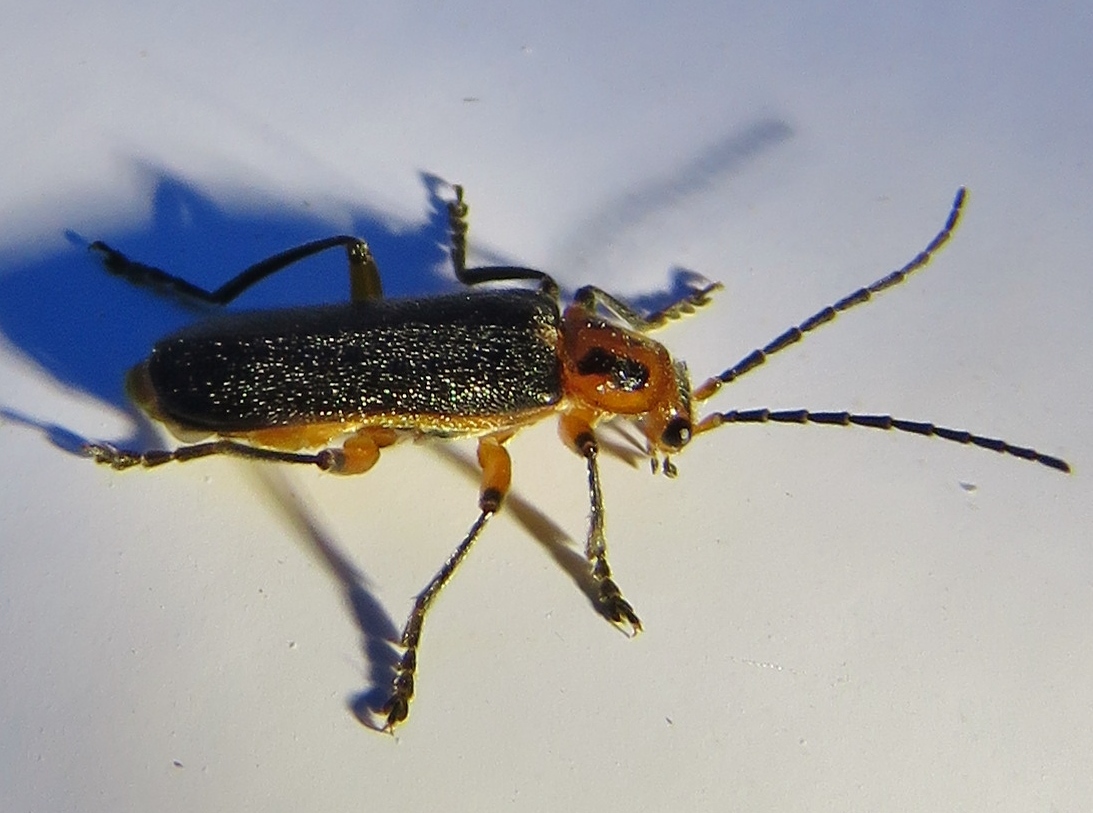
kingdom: Animalia
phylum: Arthropoda
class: Insecta
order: Coleoptera
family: Cantharidae
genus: Atalantycha
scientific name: Atalantycha bilineata
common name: Two-lined leatherwing
